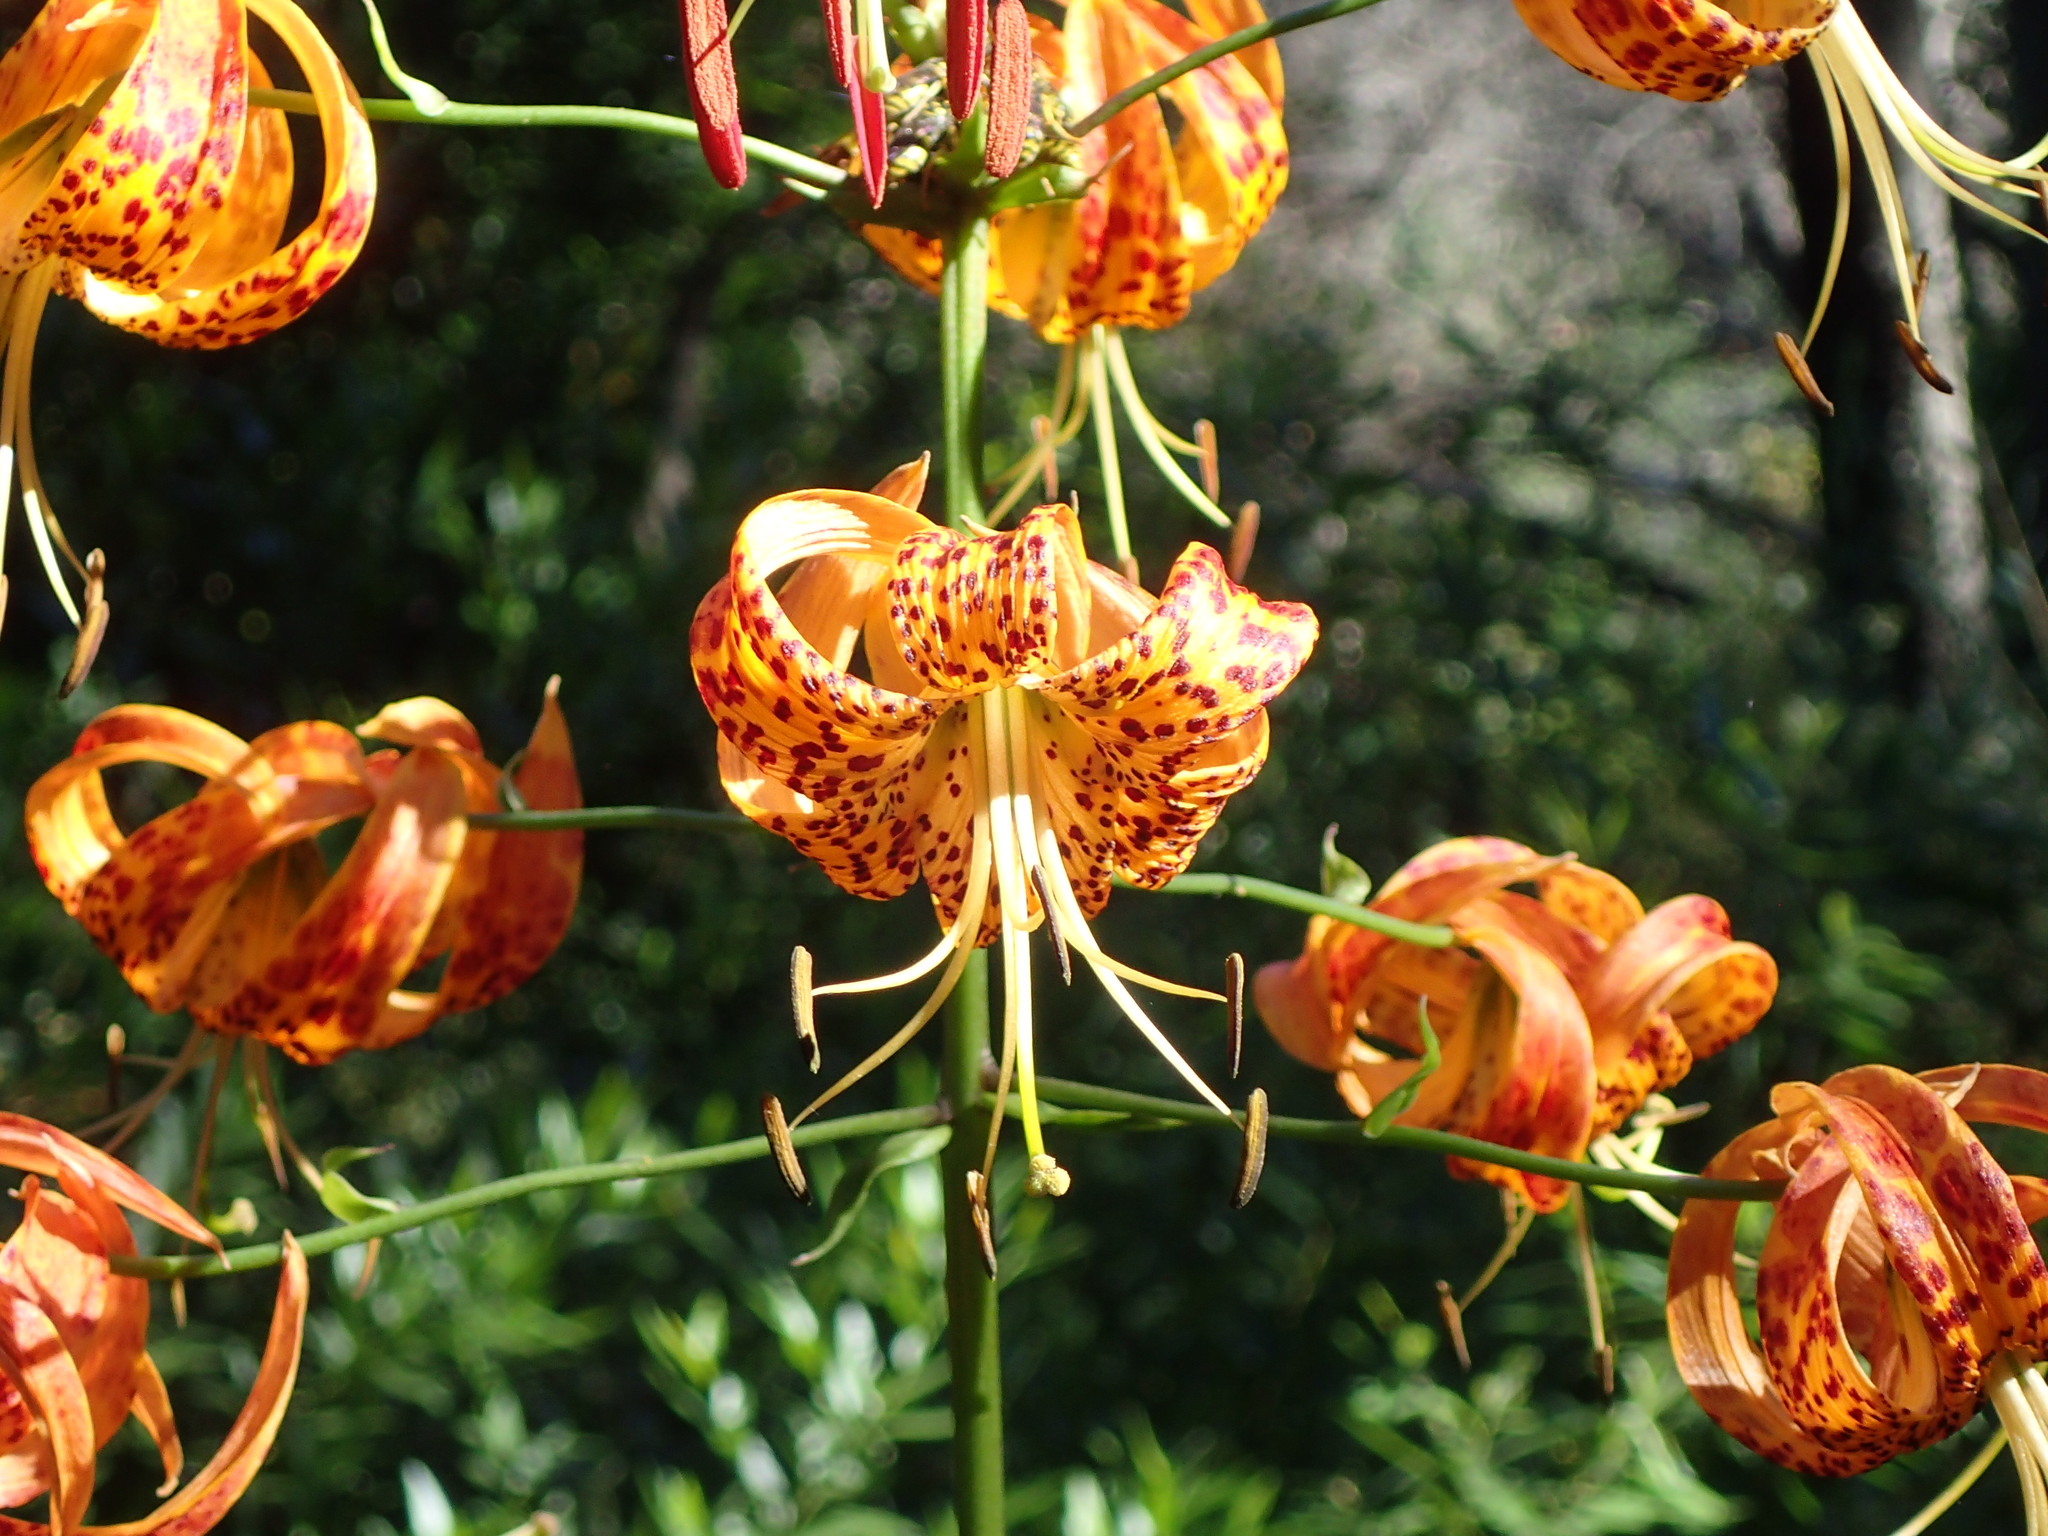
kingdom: Plantae
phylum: Tracheophyta
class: Liliopsida
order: Liliales
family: Liliaceae
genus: Lilium
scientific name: Lilium humboldtii
